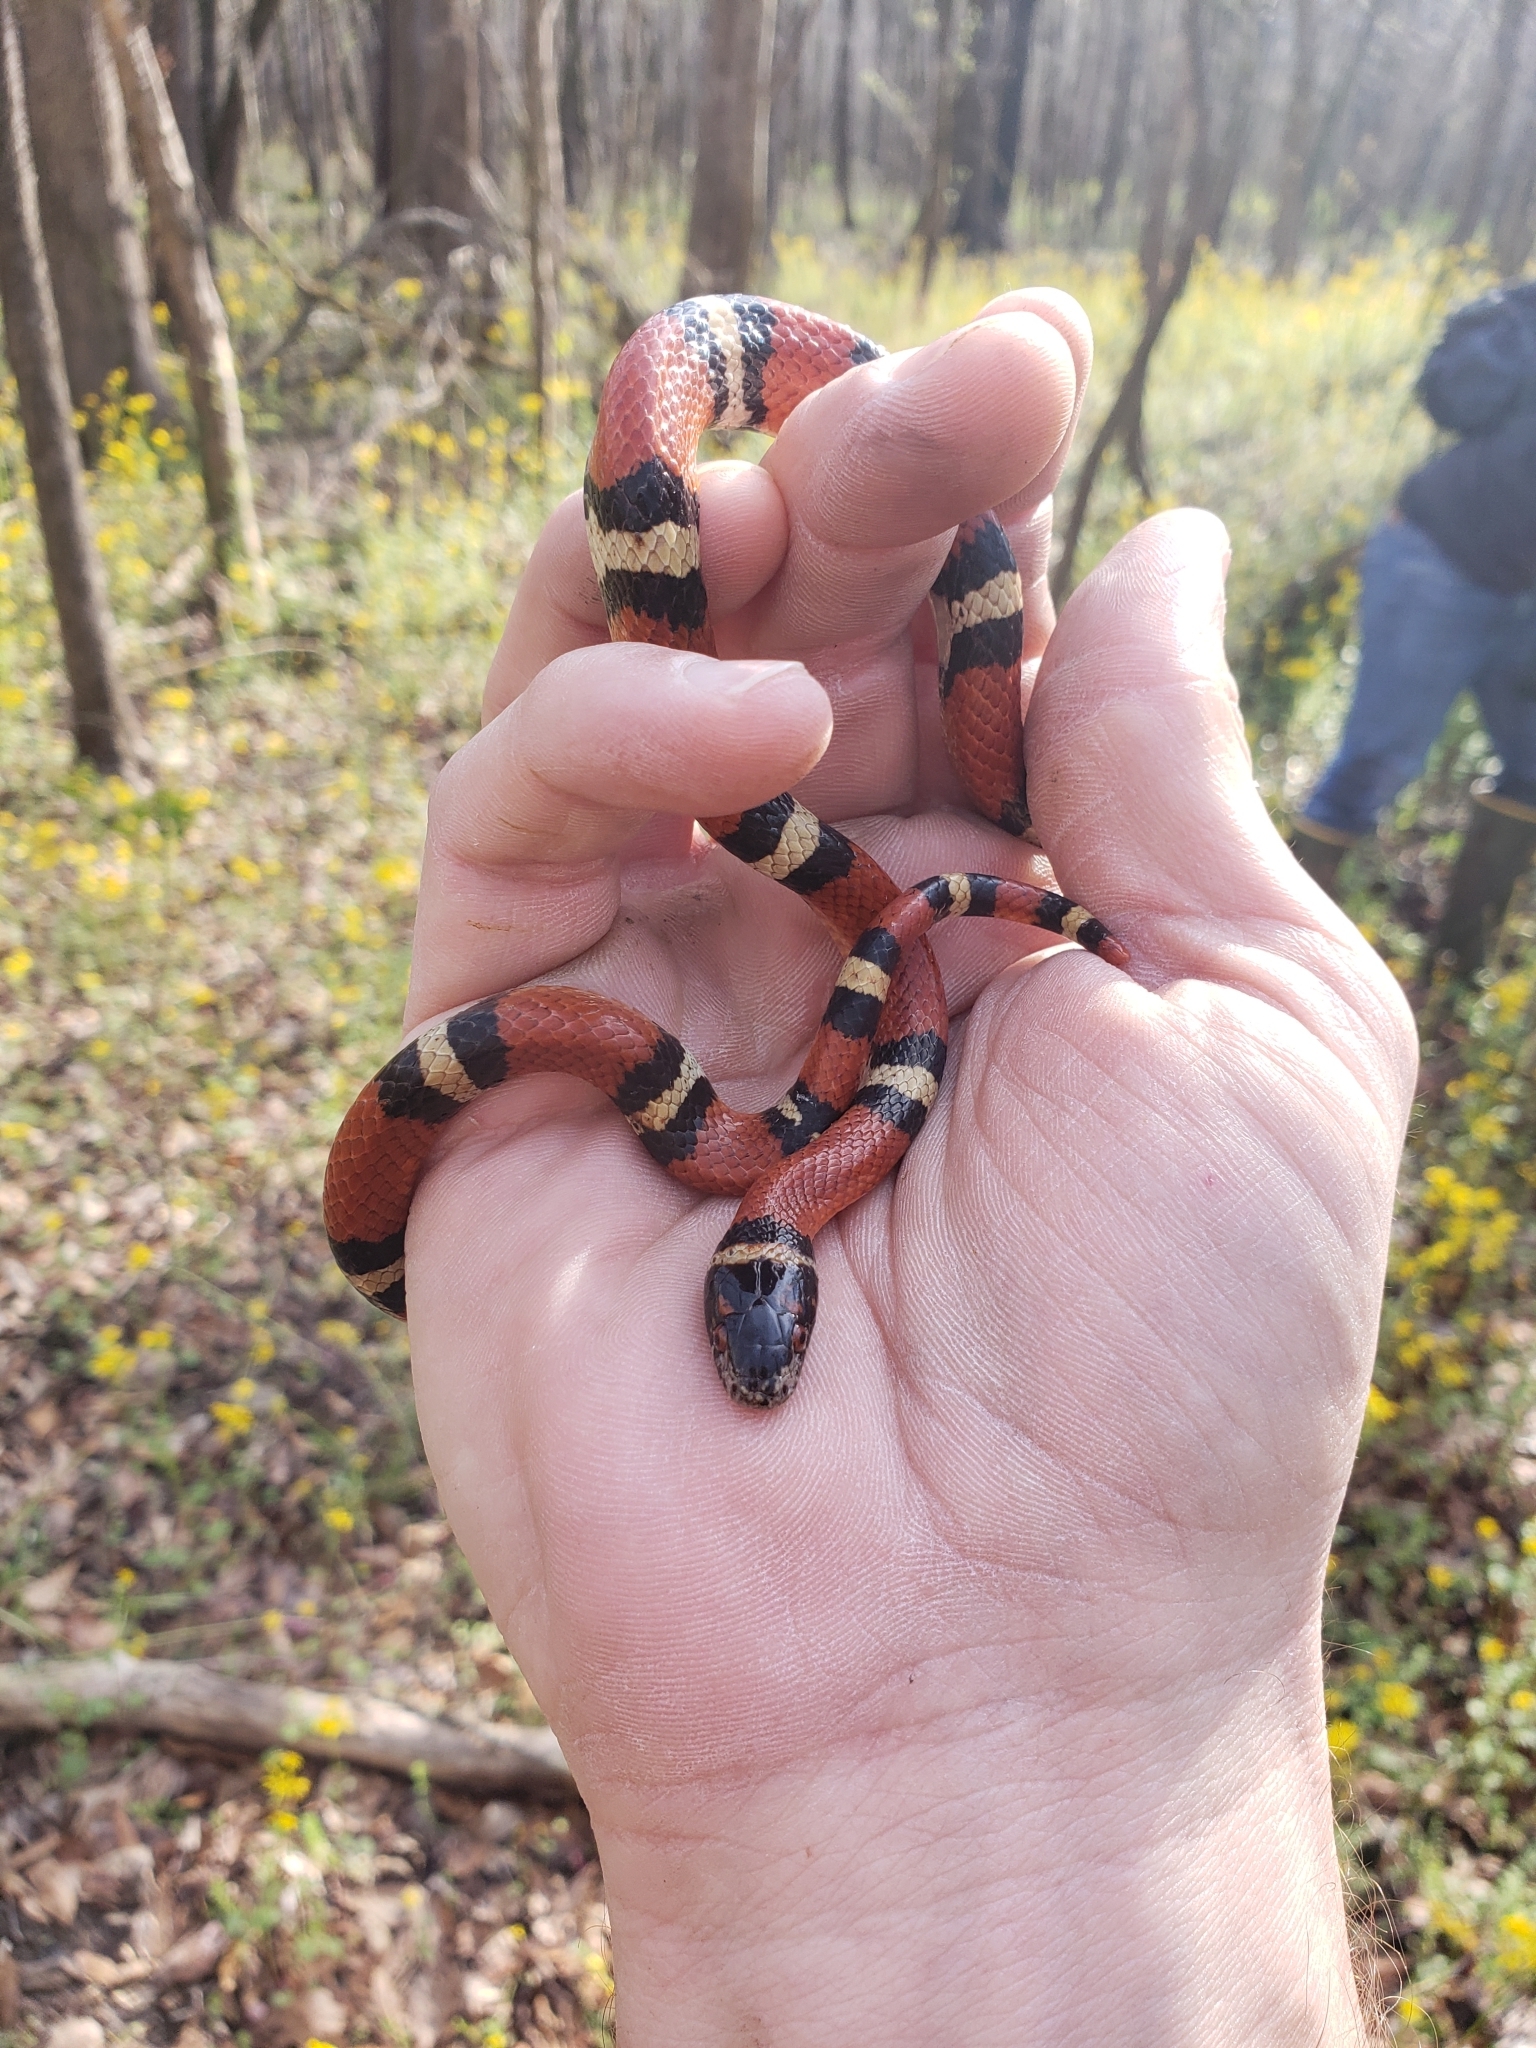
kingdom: Animalia
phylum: Chordata
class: Squamata
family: Colubridae
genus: Lampropeltis
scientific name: Lampropeltis gentilis
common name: Central plains milksnake
